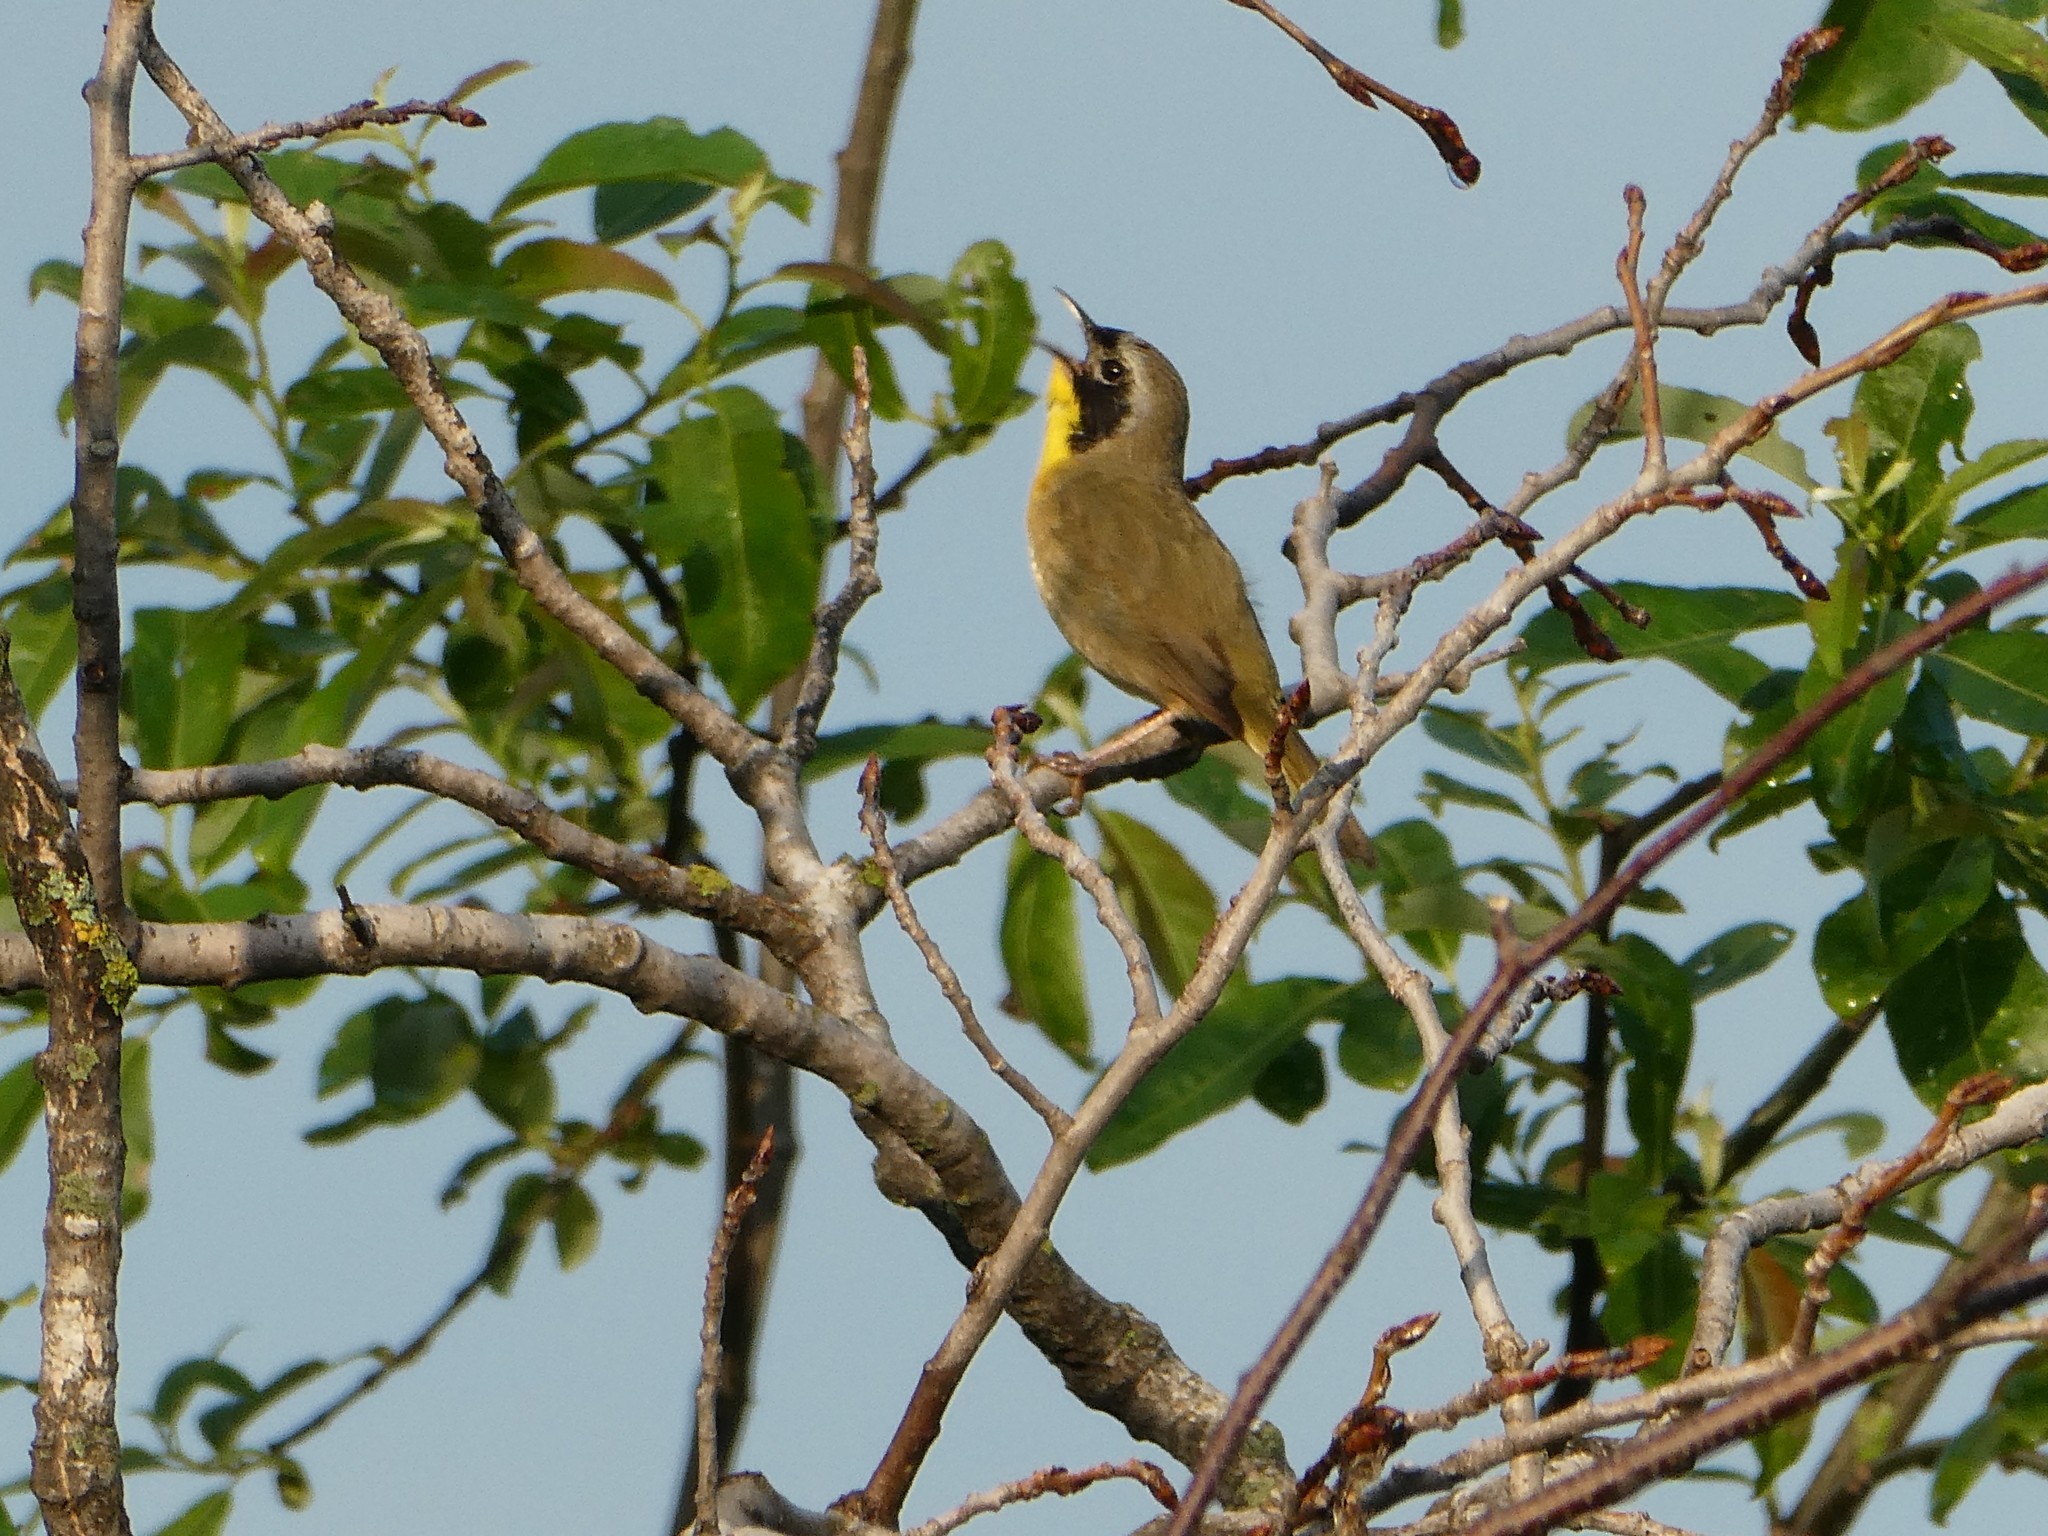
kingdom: Animalia
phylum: Chordata
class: Aves
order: Passeriformes
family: Parulidae
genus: Geothlypis
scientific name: Geothlypis trichas
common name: Common yellowthroat
